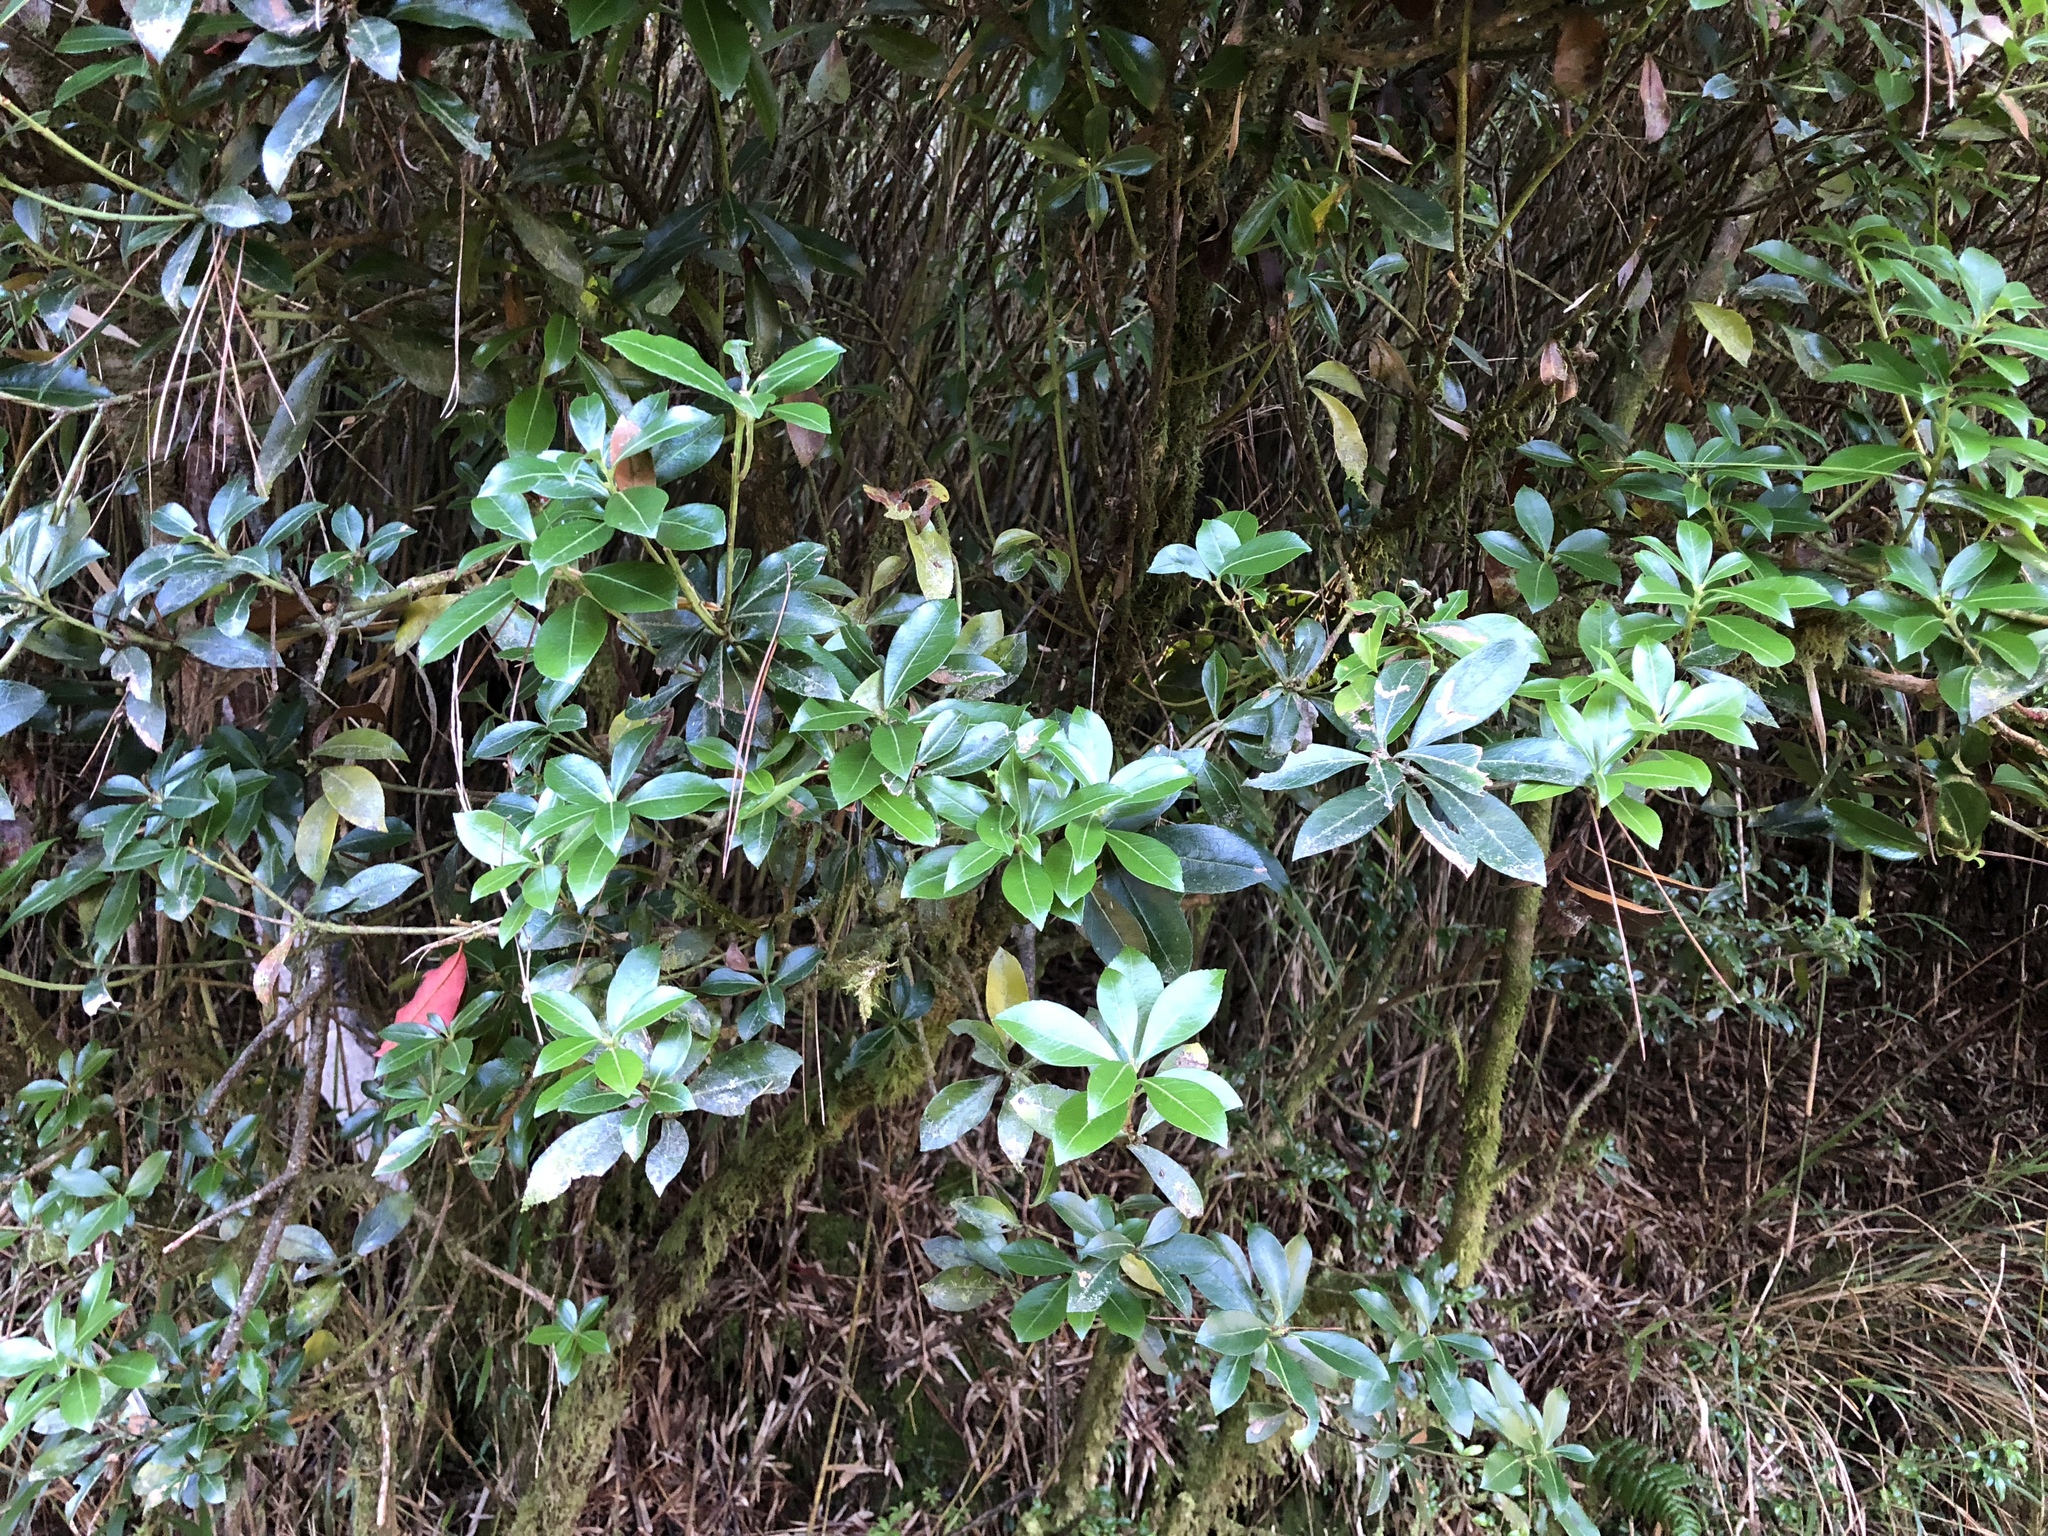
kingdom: Plantae
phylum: Tracheophyta
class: Magnoliopsida
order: Ericales
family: Ericaceae
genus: Pieris
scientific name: Pieris japonica
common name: Japanese pieris
